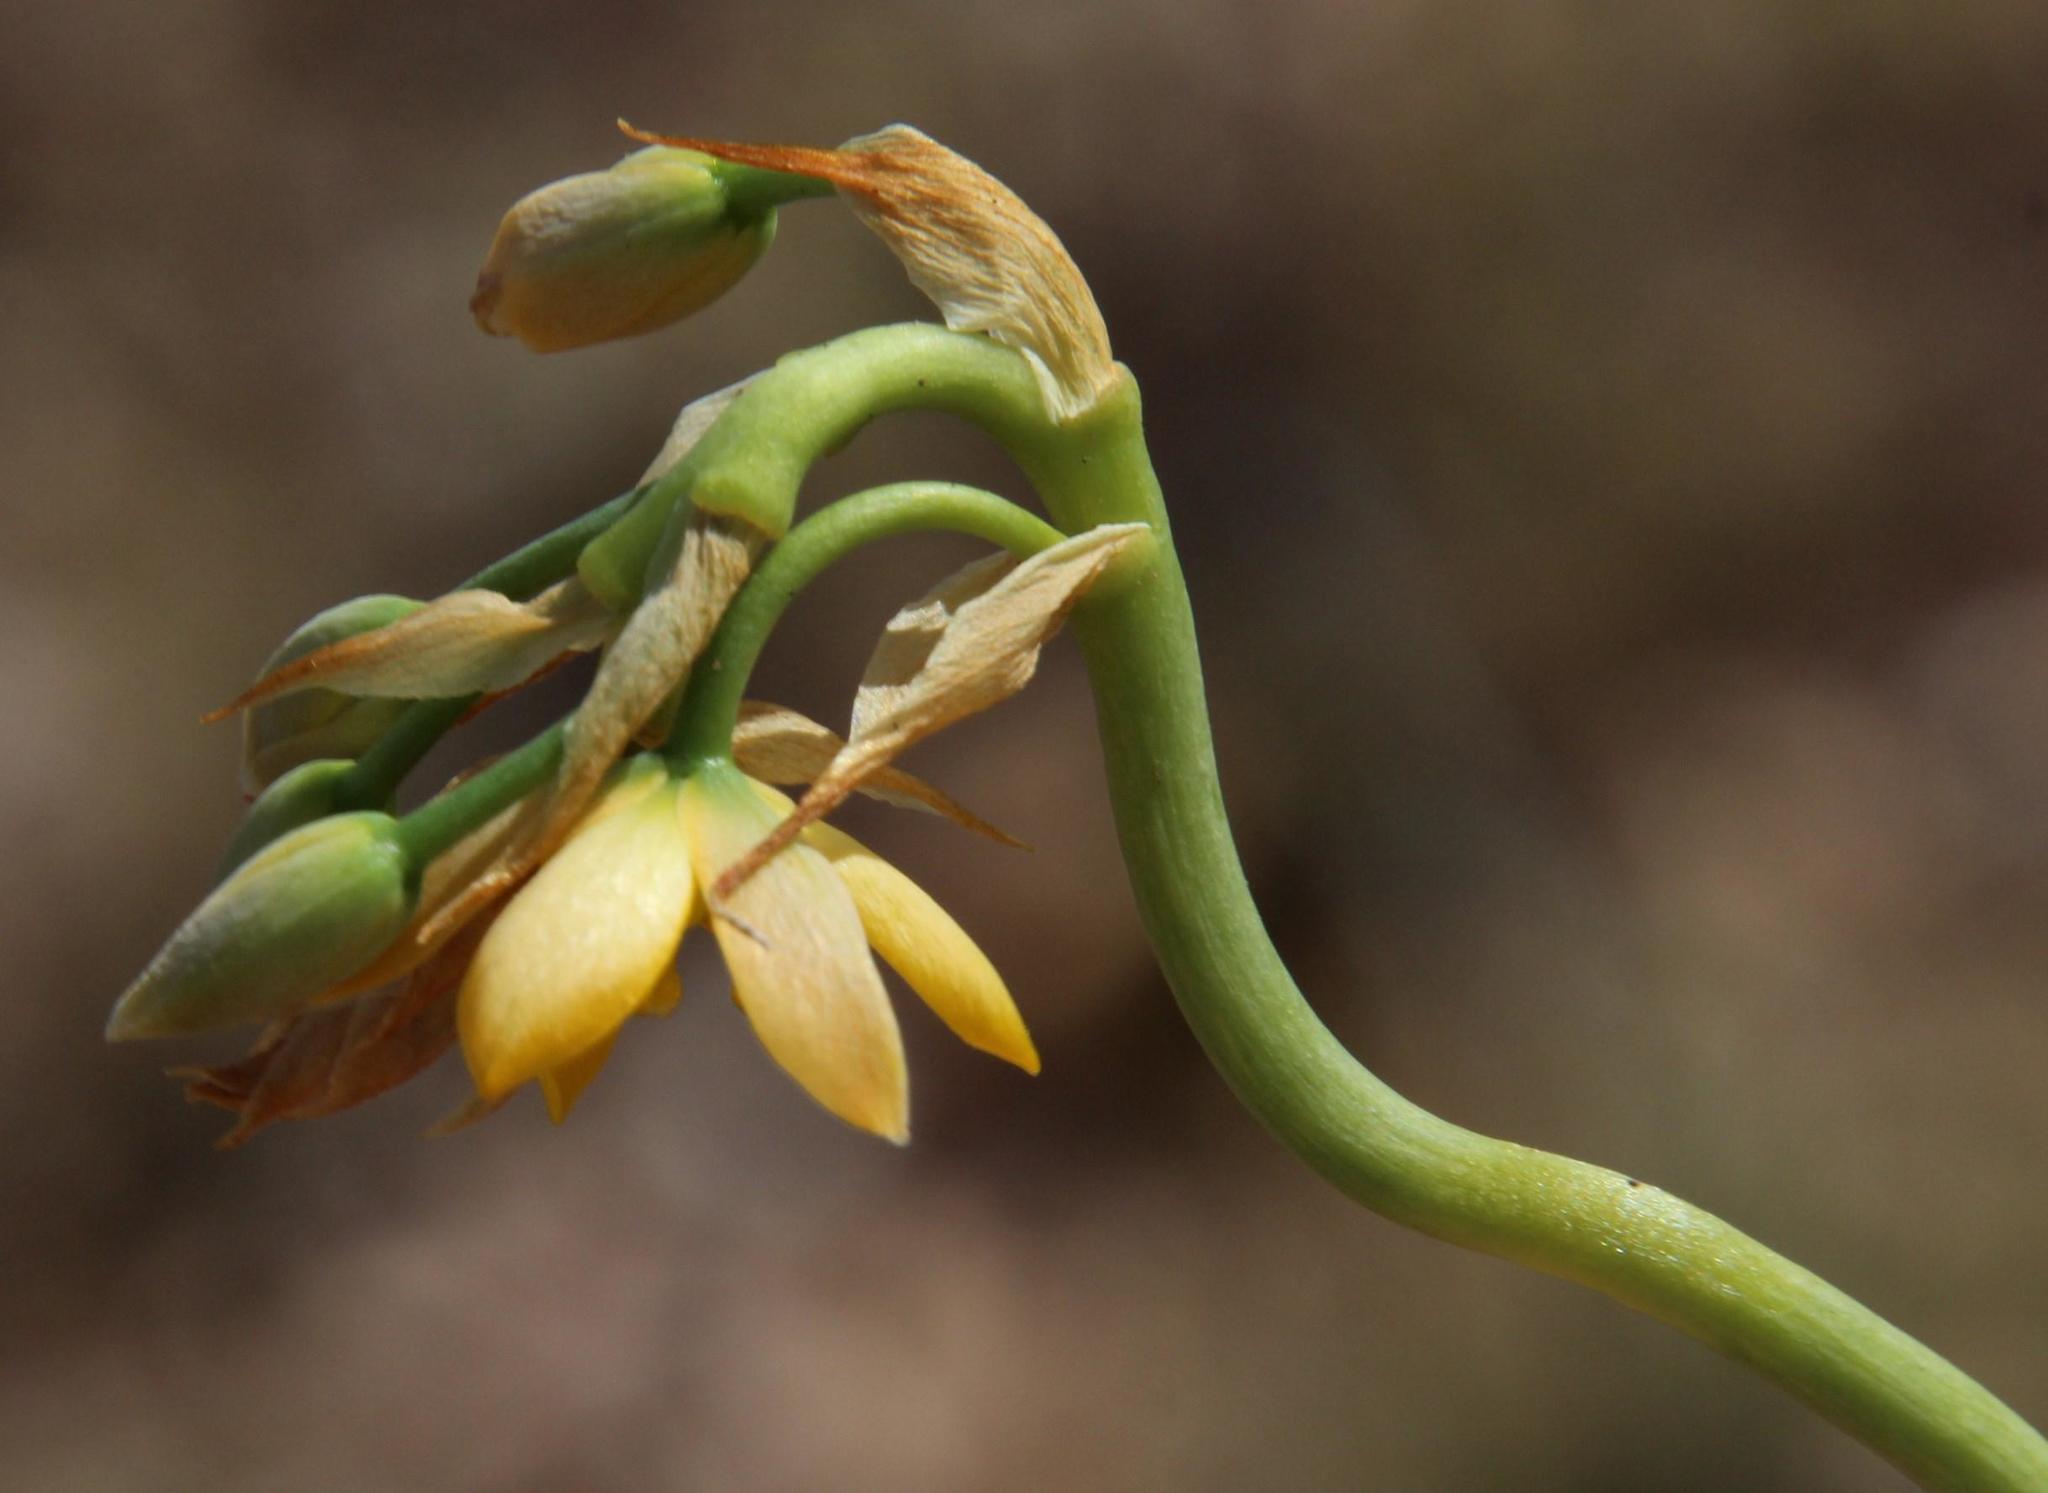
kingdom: Plantae
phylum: Tracheophyta
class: Liliopsida
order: Asparagales
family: Asparagaceae
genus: Ornithogalum
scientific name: Ornithogalum dubium
